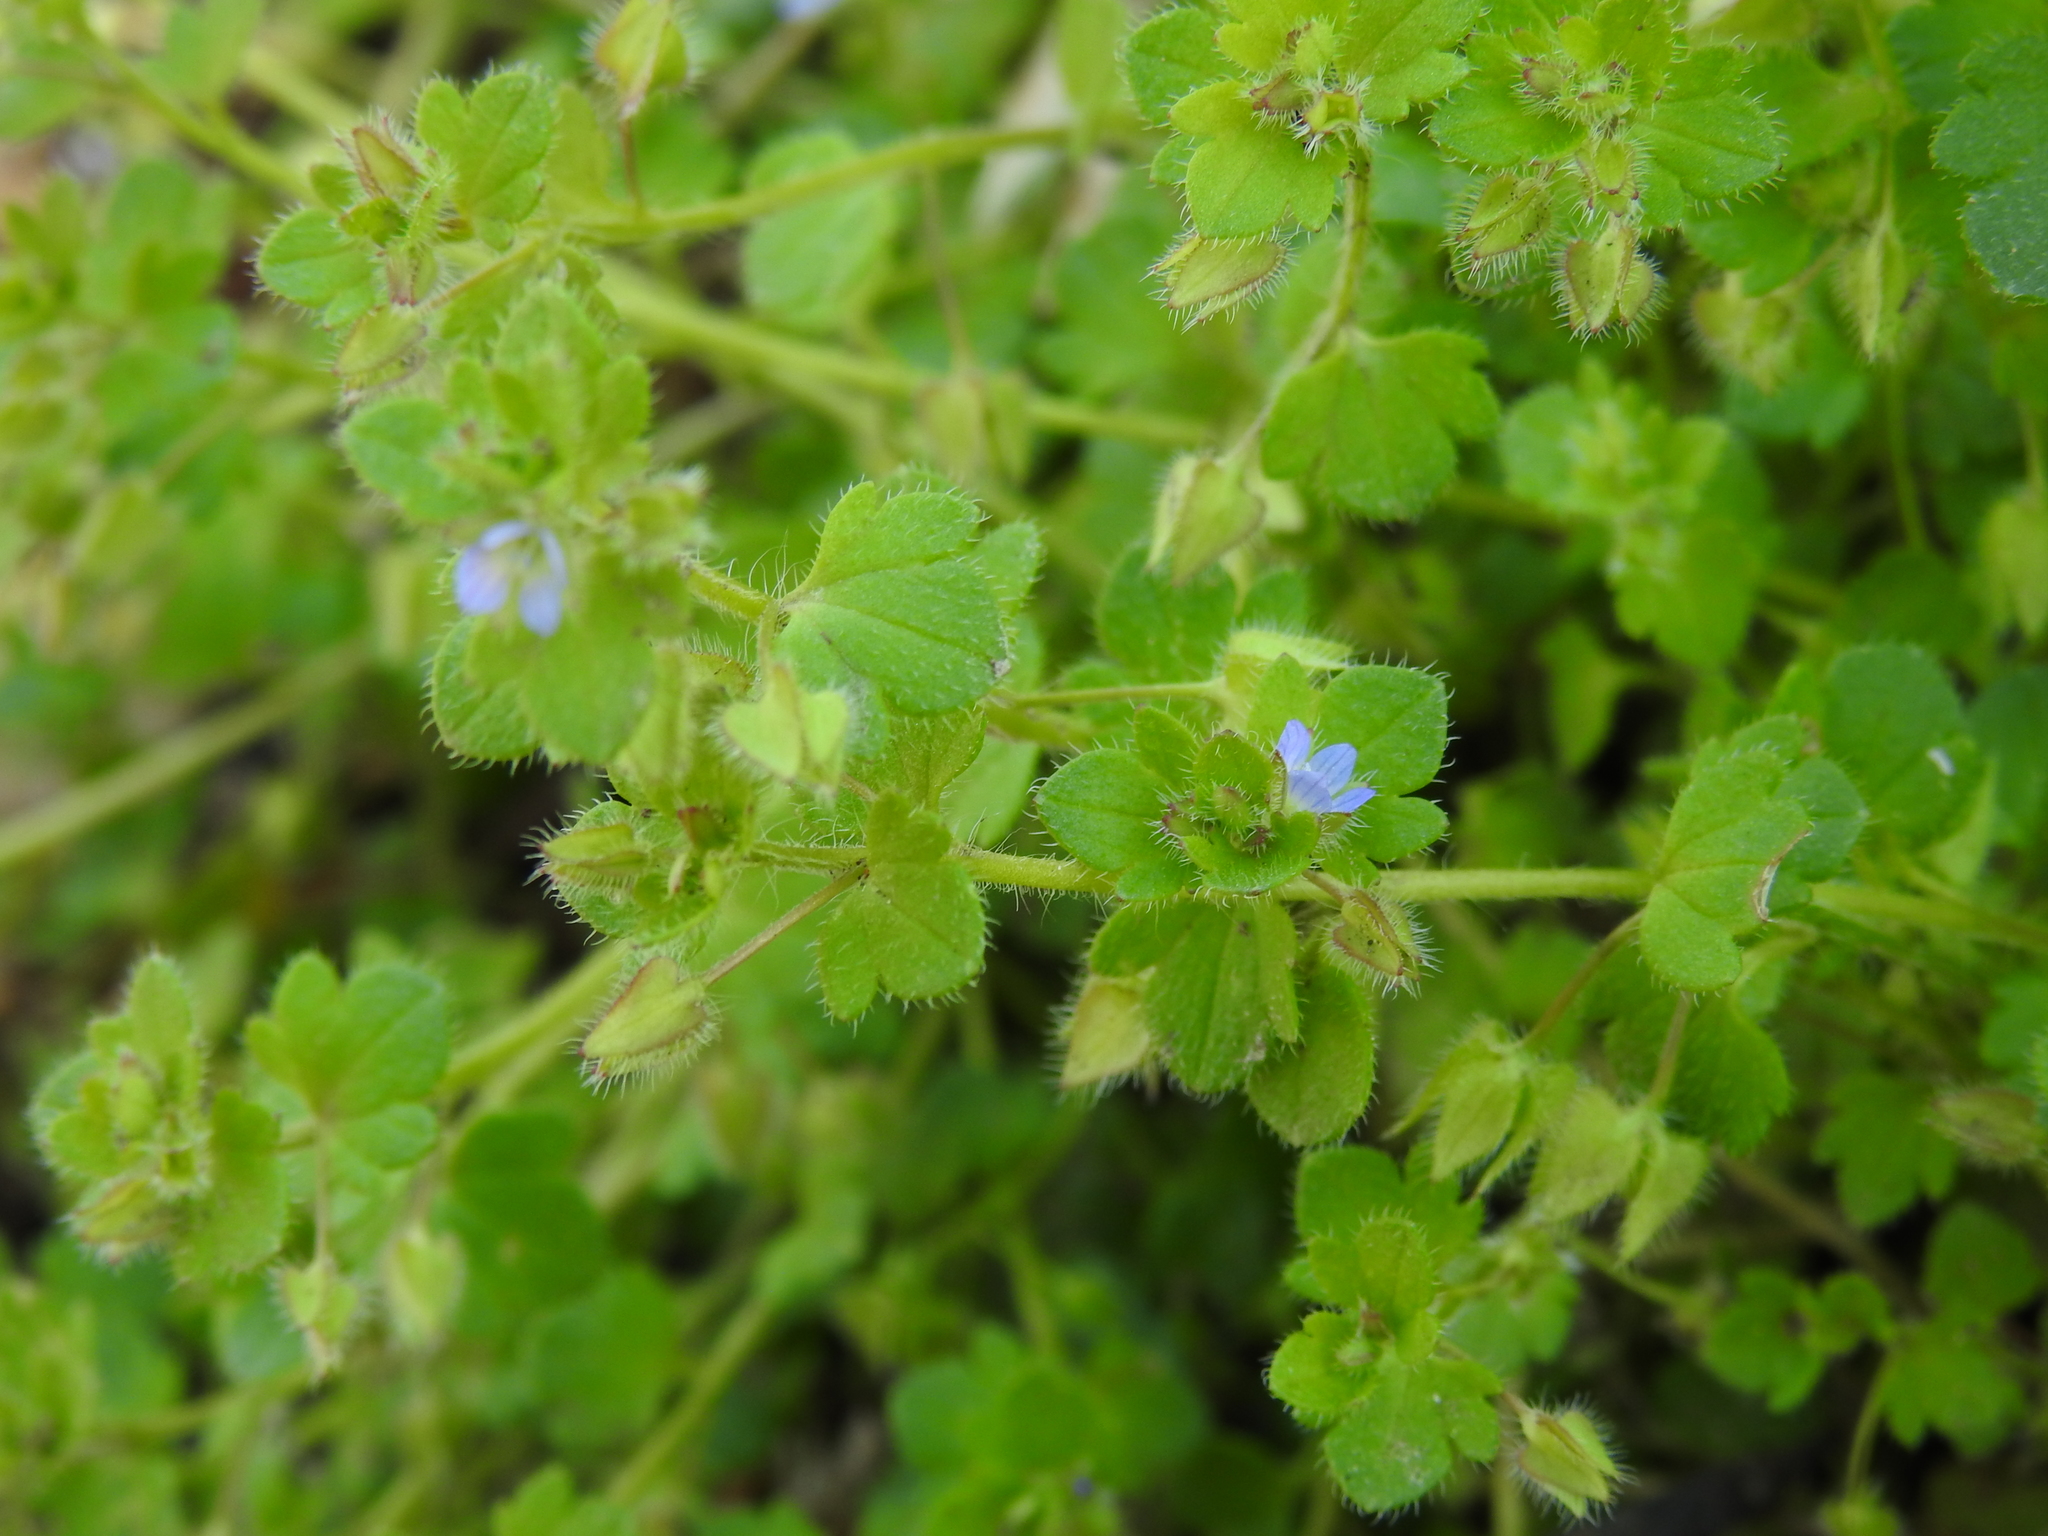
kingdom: Plantae
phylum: Tracheophyta
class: Magnoliopsida
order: Lamiales
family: Plantaginaceae
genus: Veronica
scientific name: Veronica hederifolia
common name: Ivy-leaved speedwell
